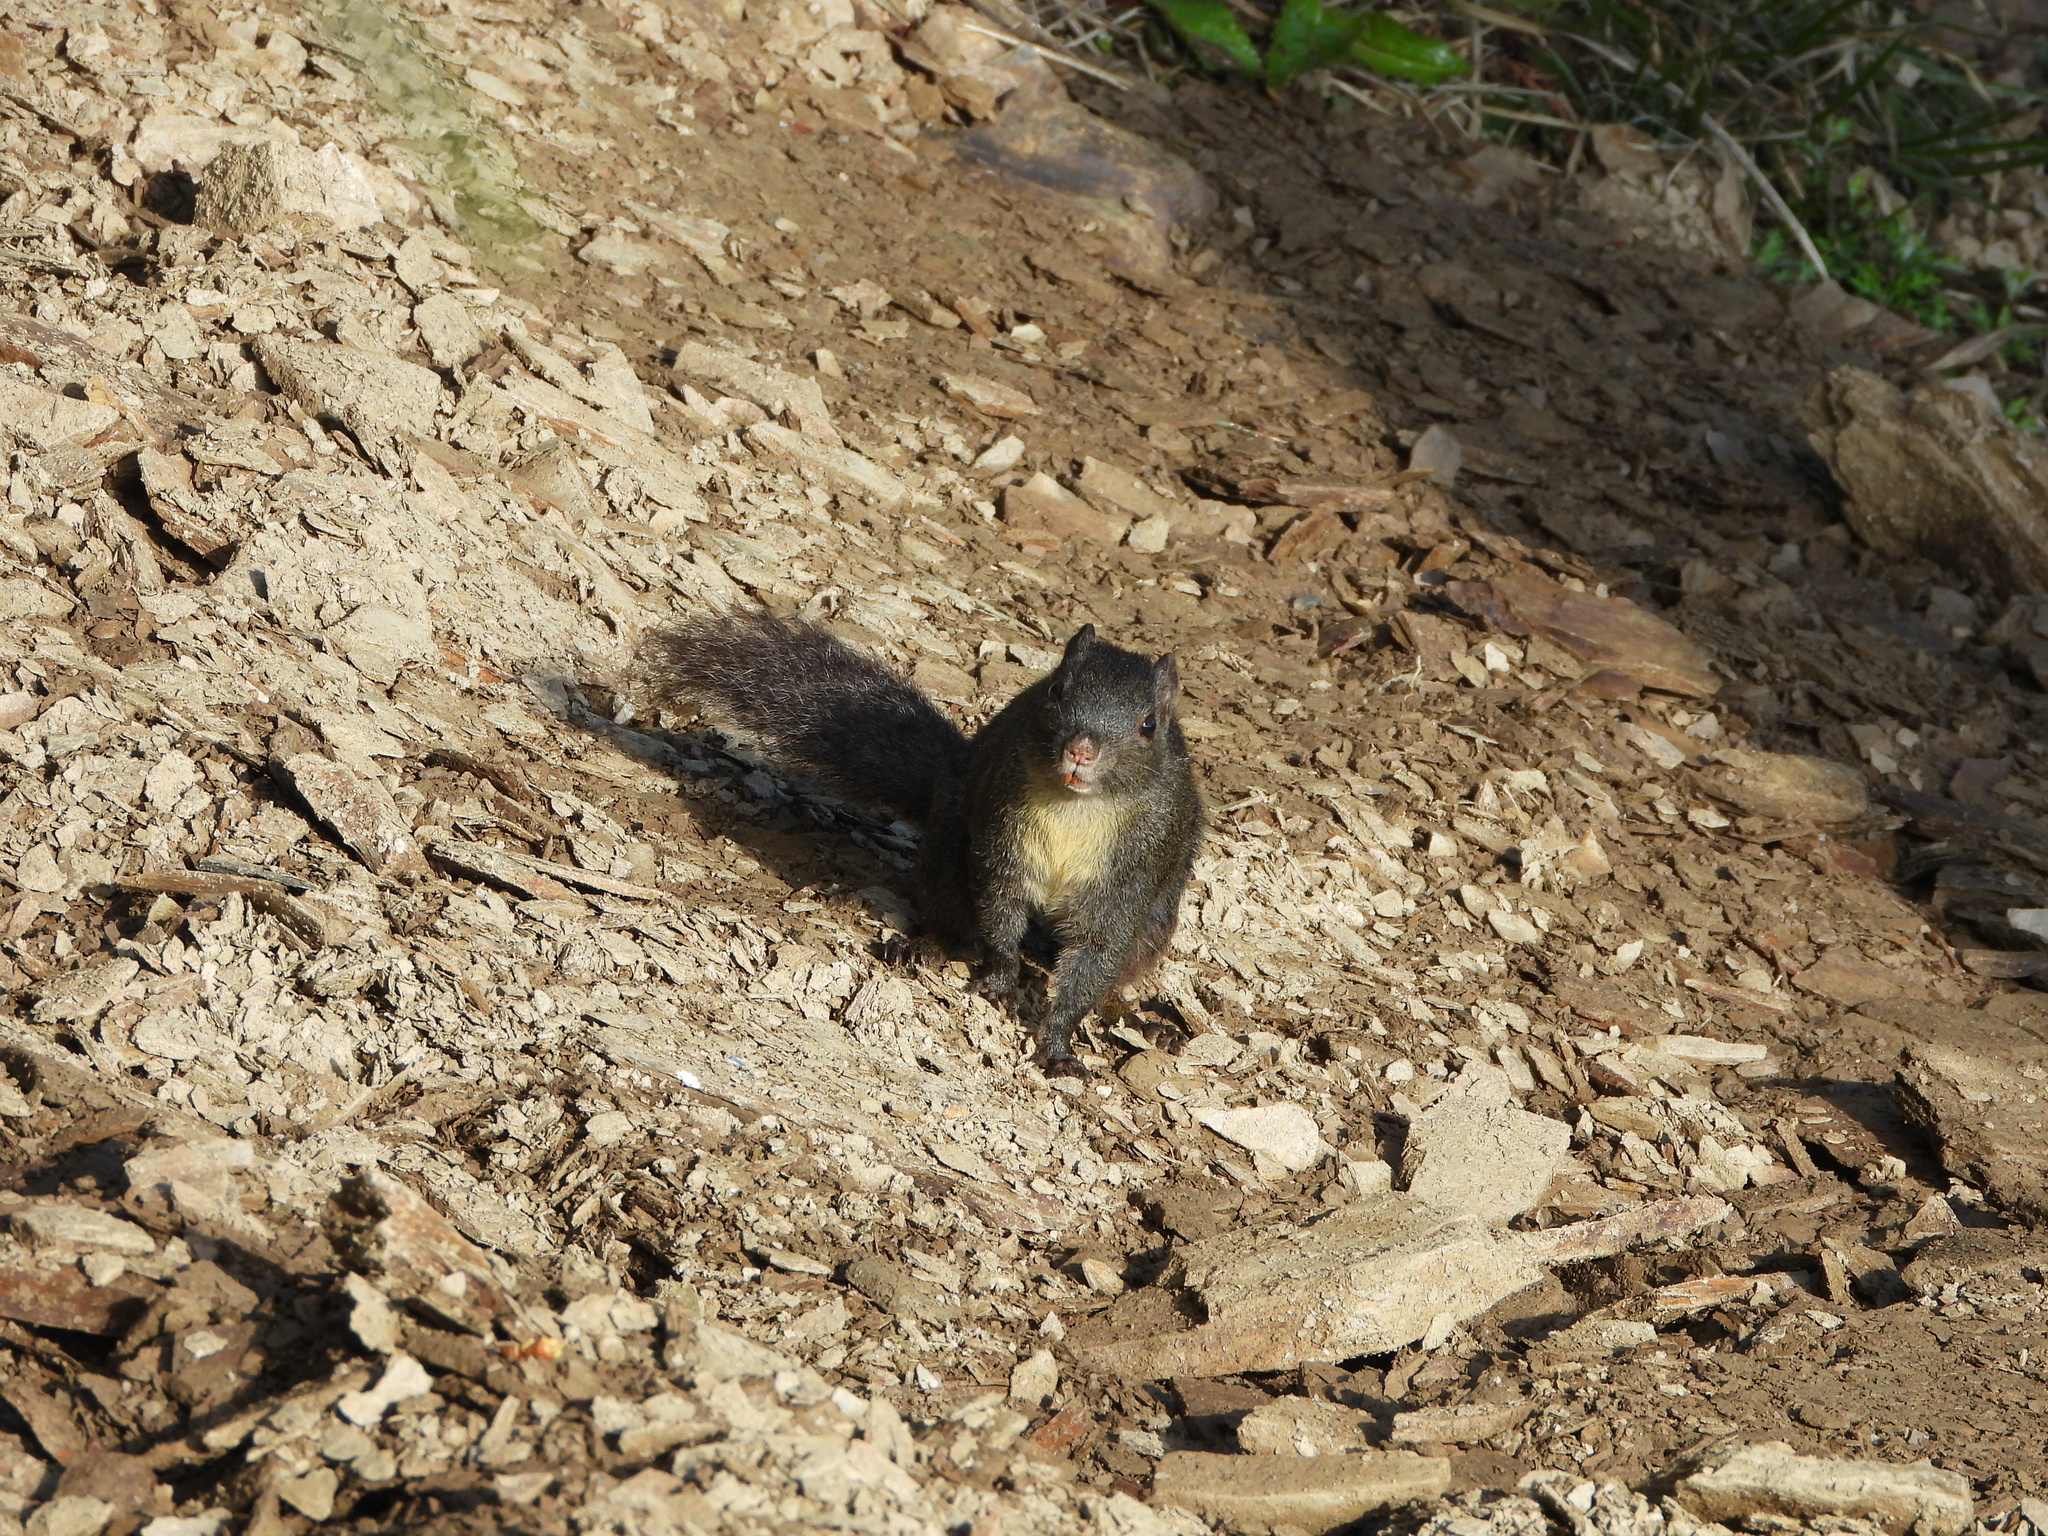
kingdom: Animalia
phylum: Chordata
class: Mammalia
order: Rodentia
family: Sciuridae
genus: Dremomys
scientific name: Dremomys pernyi
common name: Perny's long-nosed squirrel
